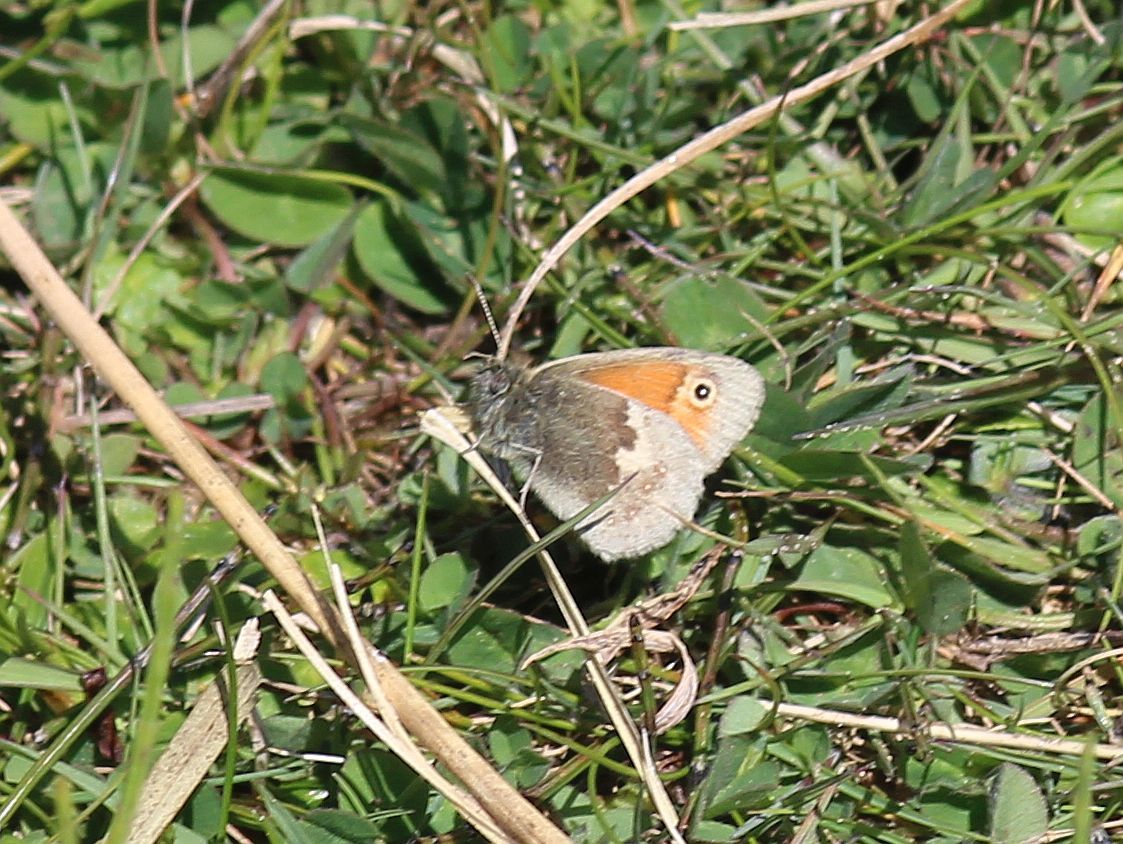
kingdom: Animalia
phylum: Arthropoda
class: Insecta
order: Lepidoptera
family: Nymphalidae
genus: Coenonympha
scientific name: Coenonympha pamphilus
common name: Small heath
